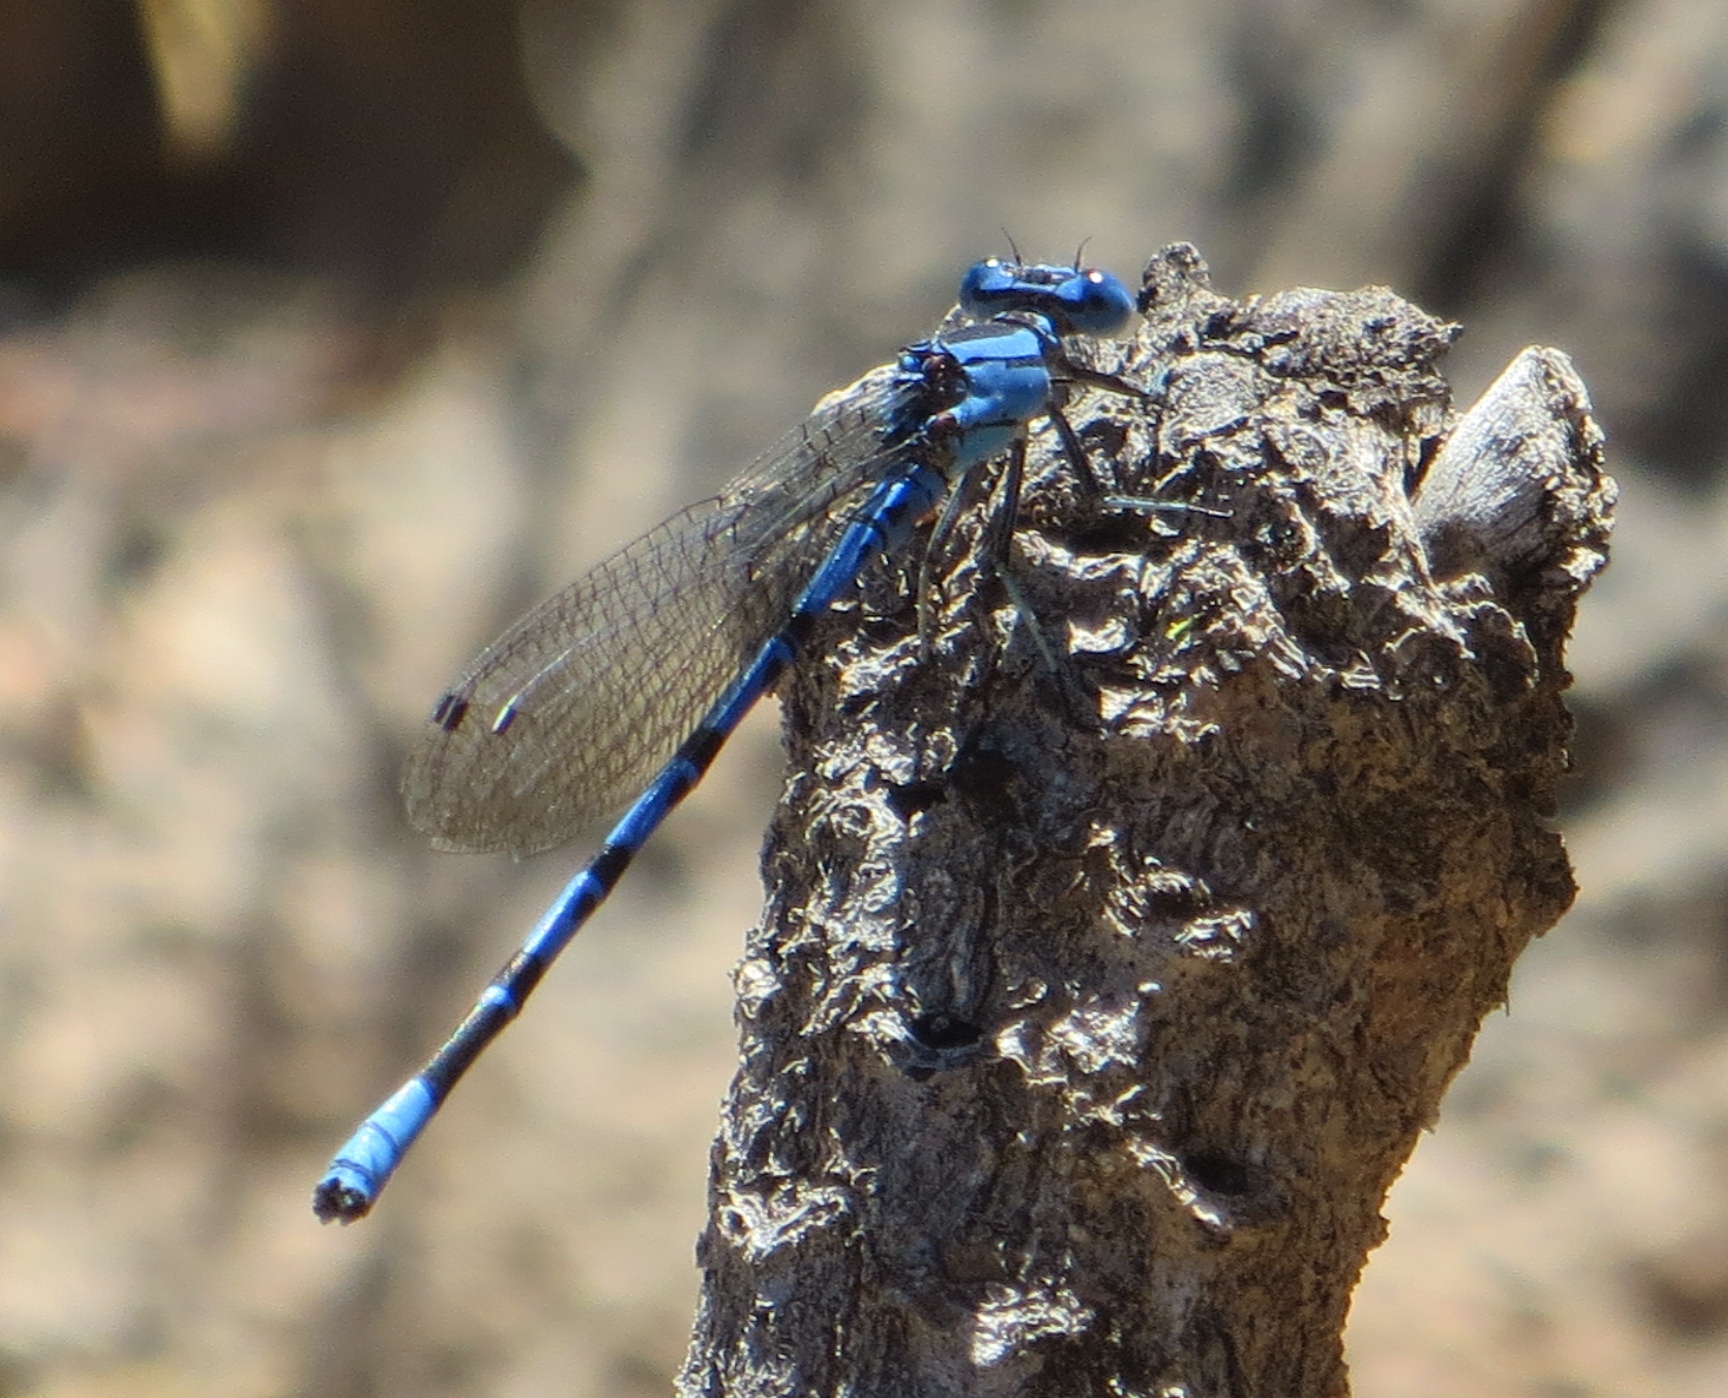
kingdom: Animalia
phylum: Arthropoda
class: Insecta
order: Odonata
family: Coenagrionidae
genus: Argia
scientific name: Argia vivida
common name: Vivid dancer
